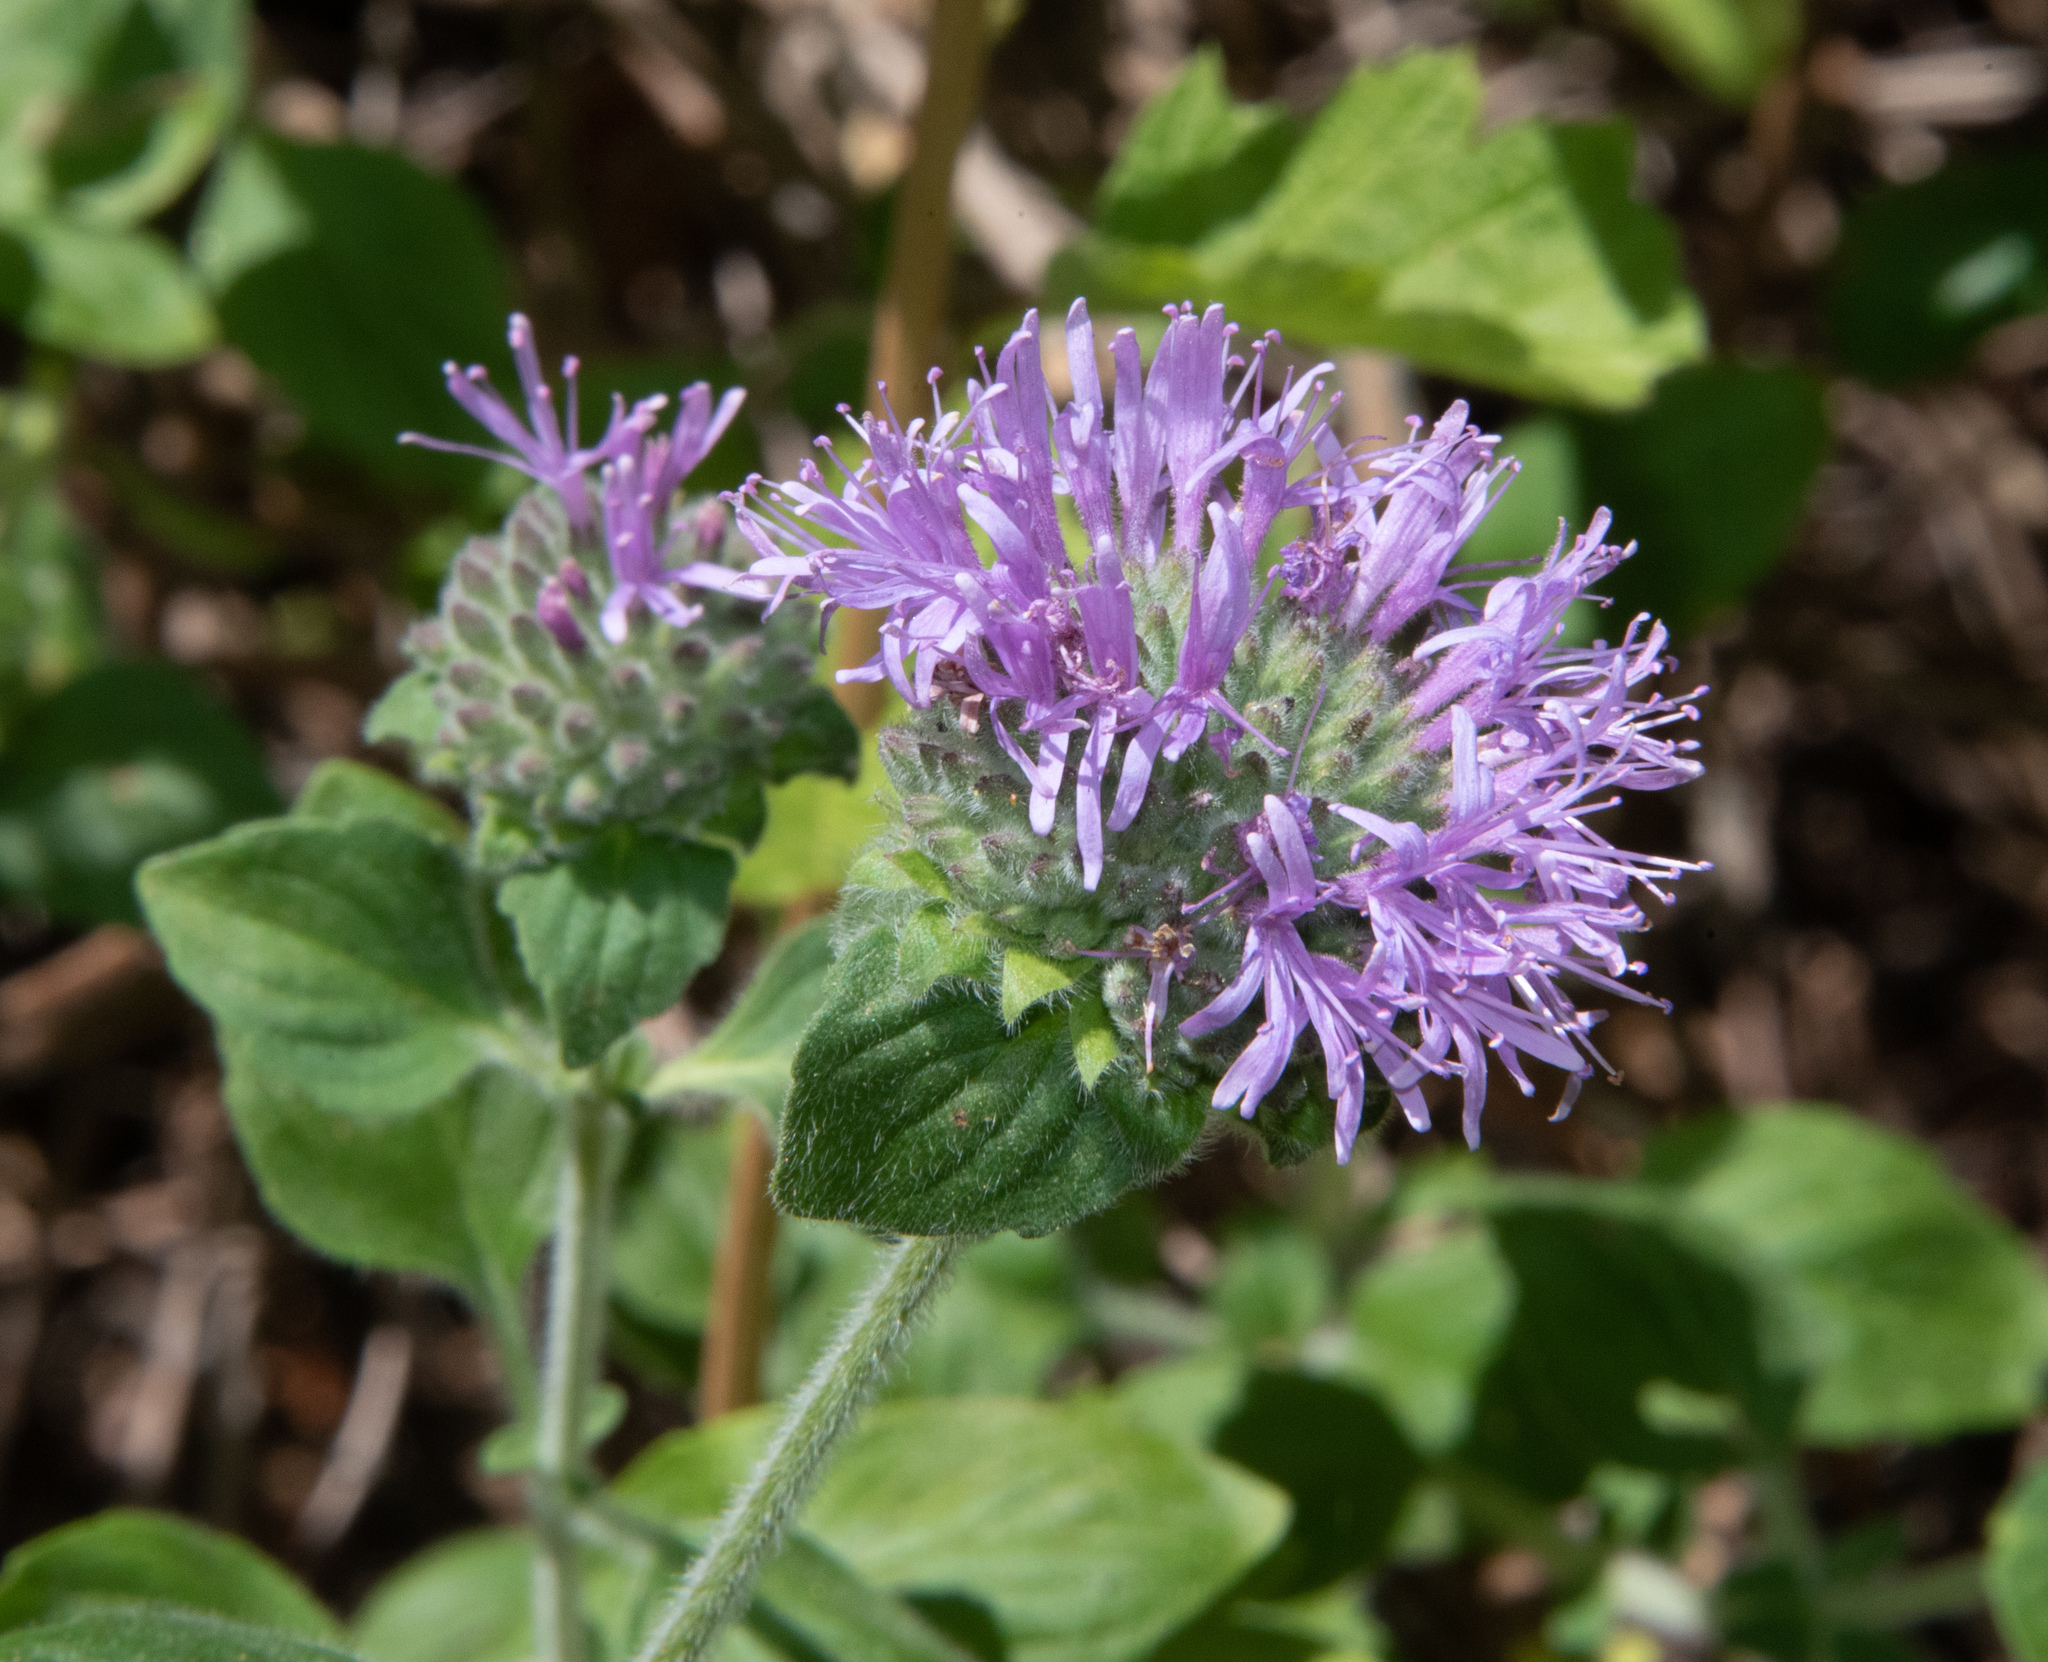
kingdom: Plantae
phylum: Tracheophyta
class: Magnoliopsida
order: Lamiales
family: Lamiaceae
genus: Monardella
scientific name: Monardella odoratissima
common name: Pacific monardella
